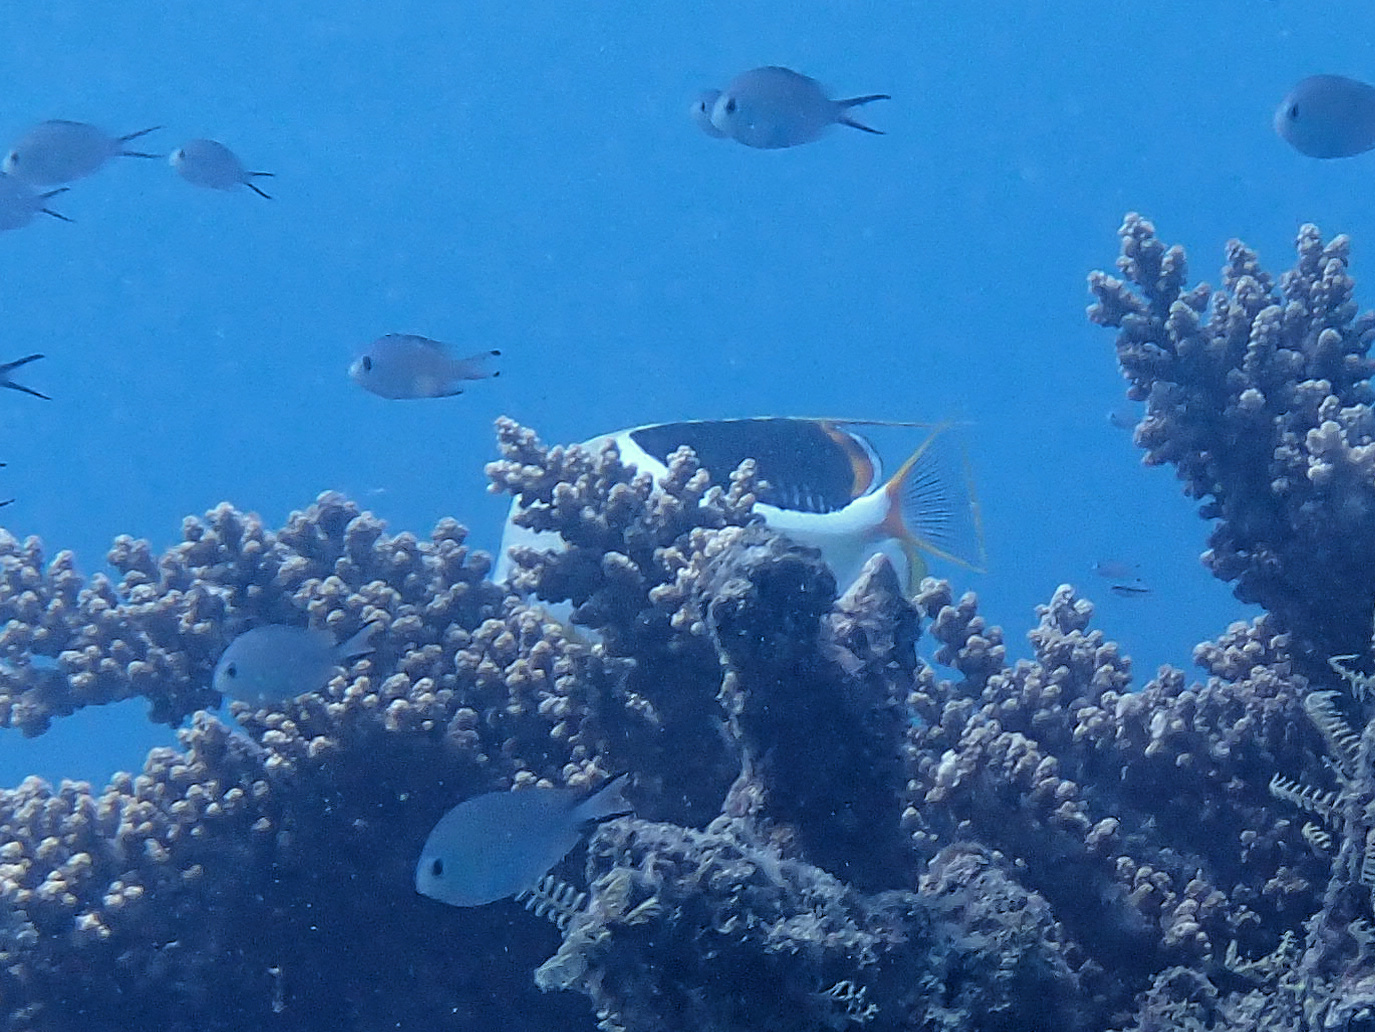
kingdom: Animalia
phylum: Chordata
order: Perciformes
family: Chaetodontidae
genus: Chaetodon
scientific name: Chaetodon ephippium
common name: Saddled butterflyfish
